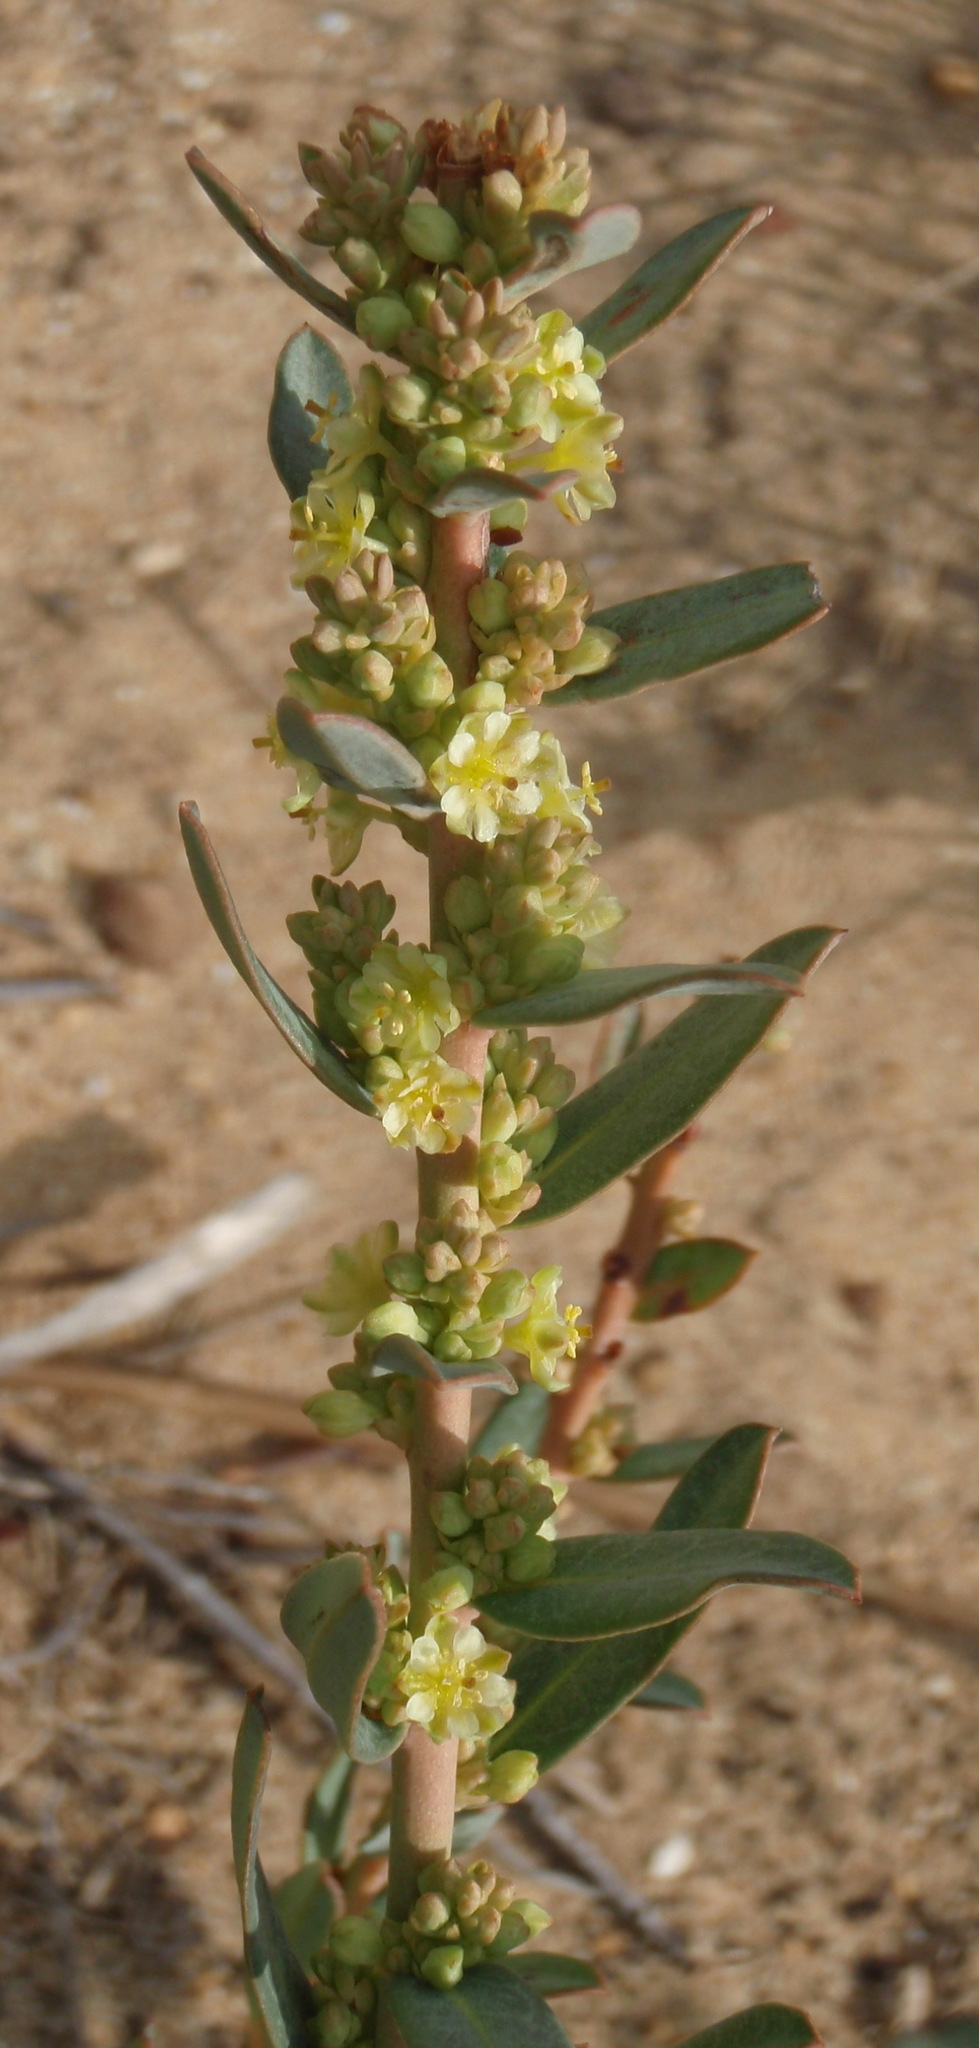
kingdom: Plantae
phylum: Tracheophyta
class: Magnoliopsida
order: Malpighiales
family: Peraceae
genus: Clutia
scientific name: Clutia laxa
